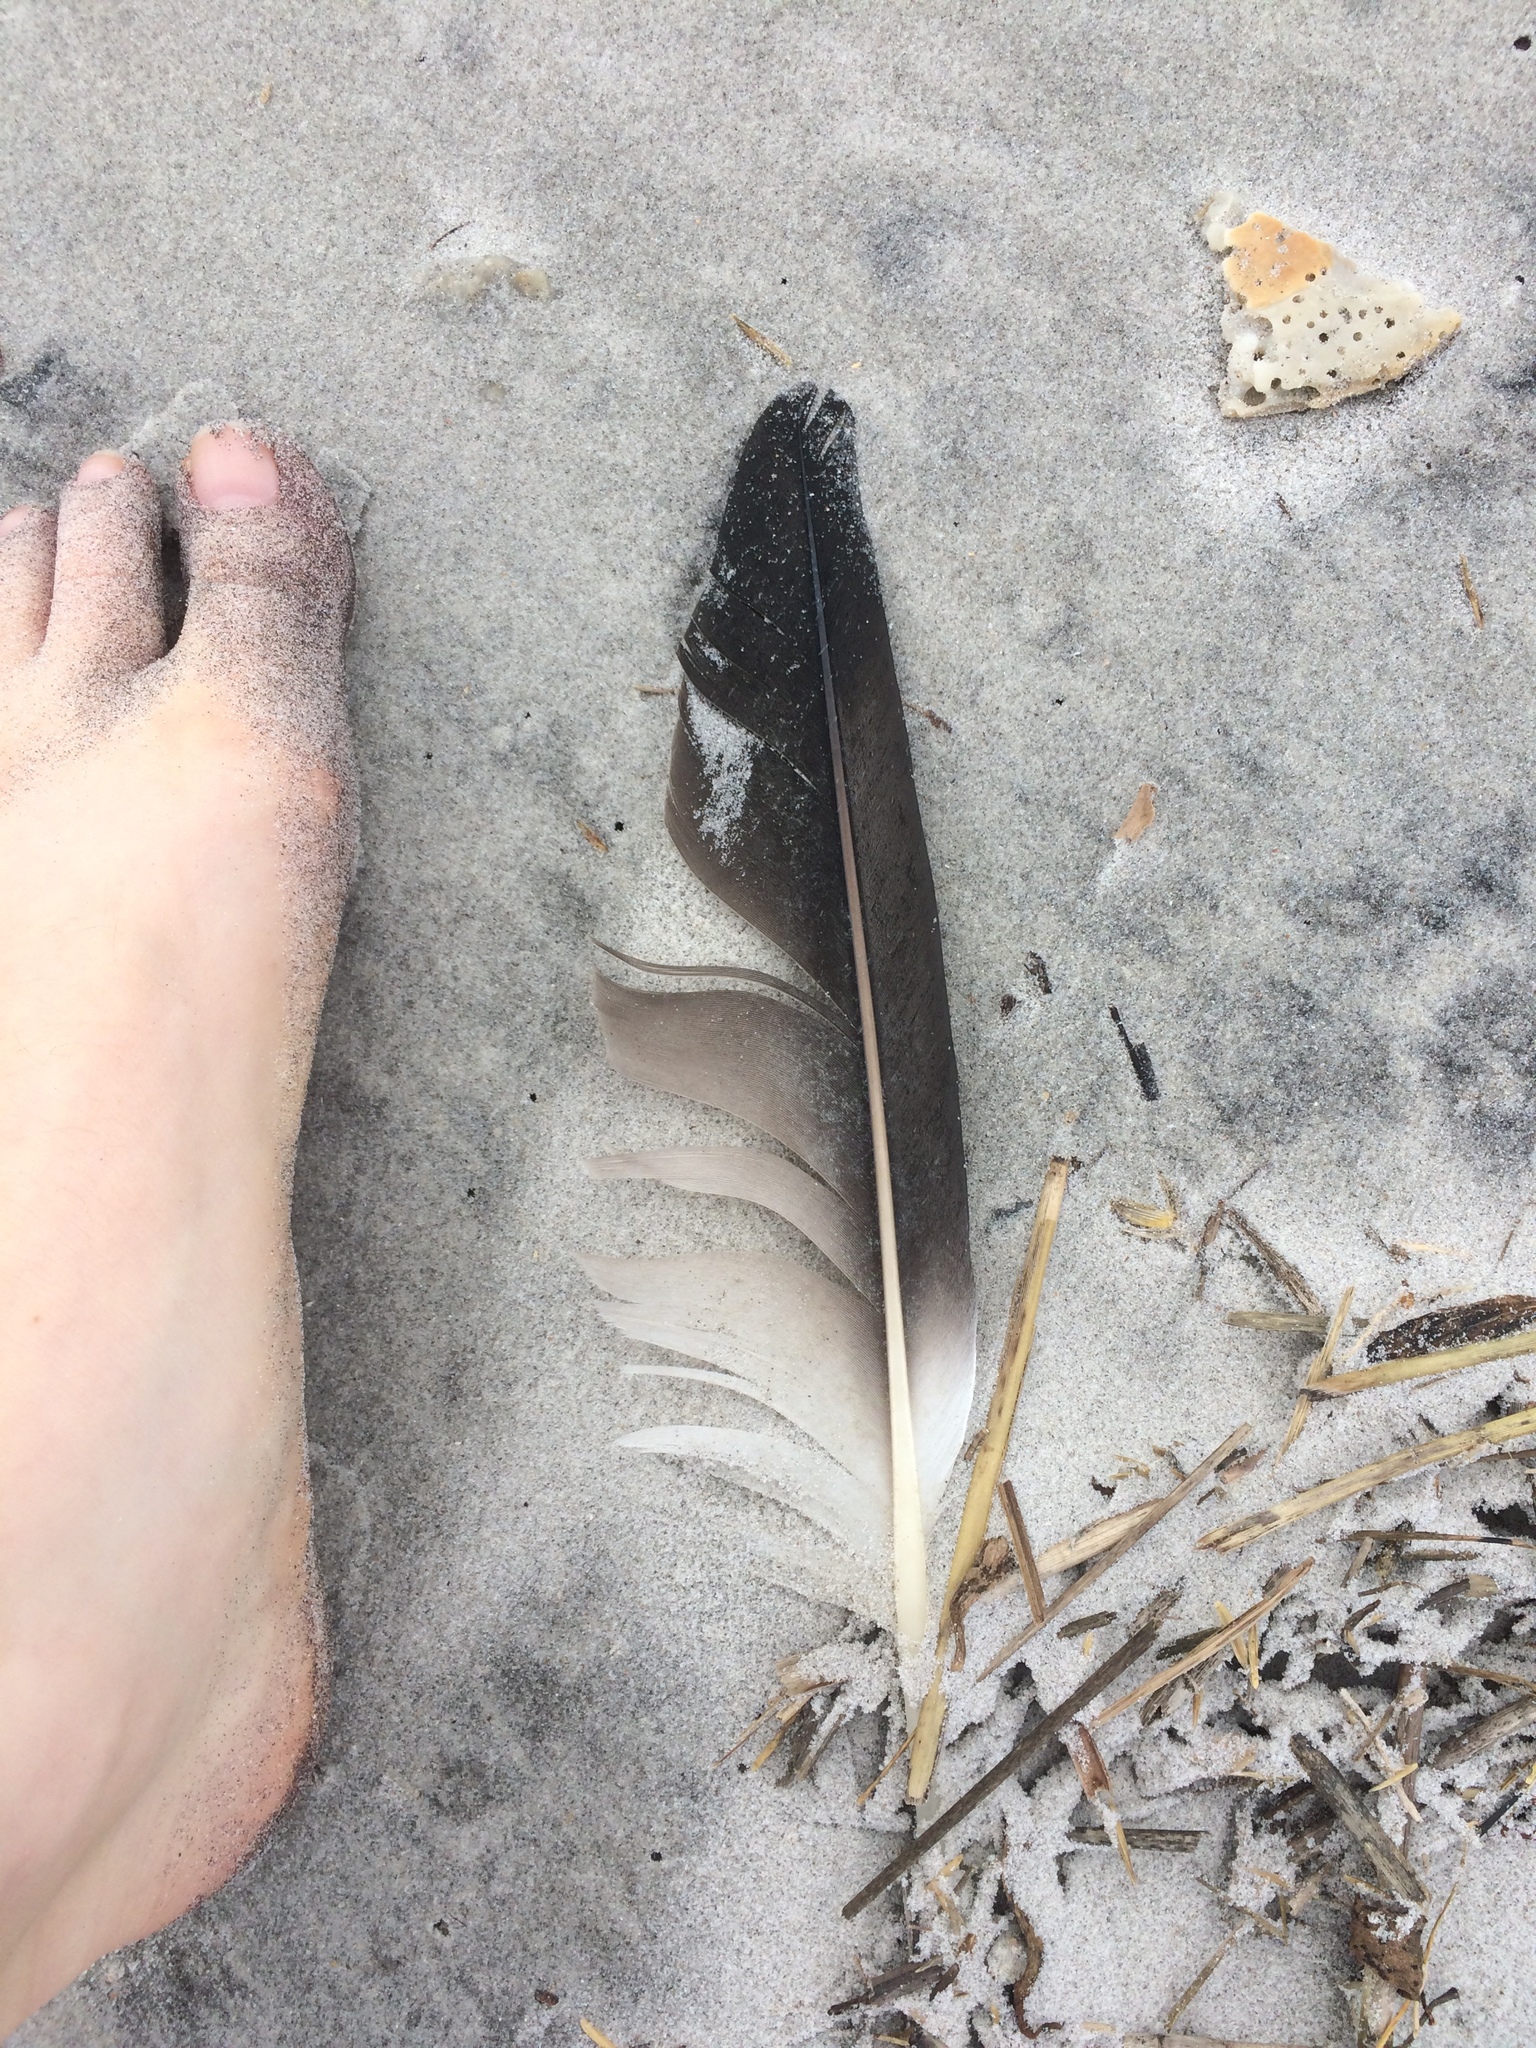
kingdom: Animalia
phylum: Chordata
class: Aves
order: Suliformes
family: Sulidae
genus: Morus
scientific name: Morus bassanus
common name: Northern gannet
